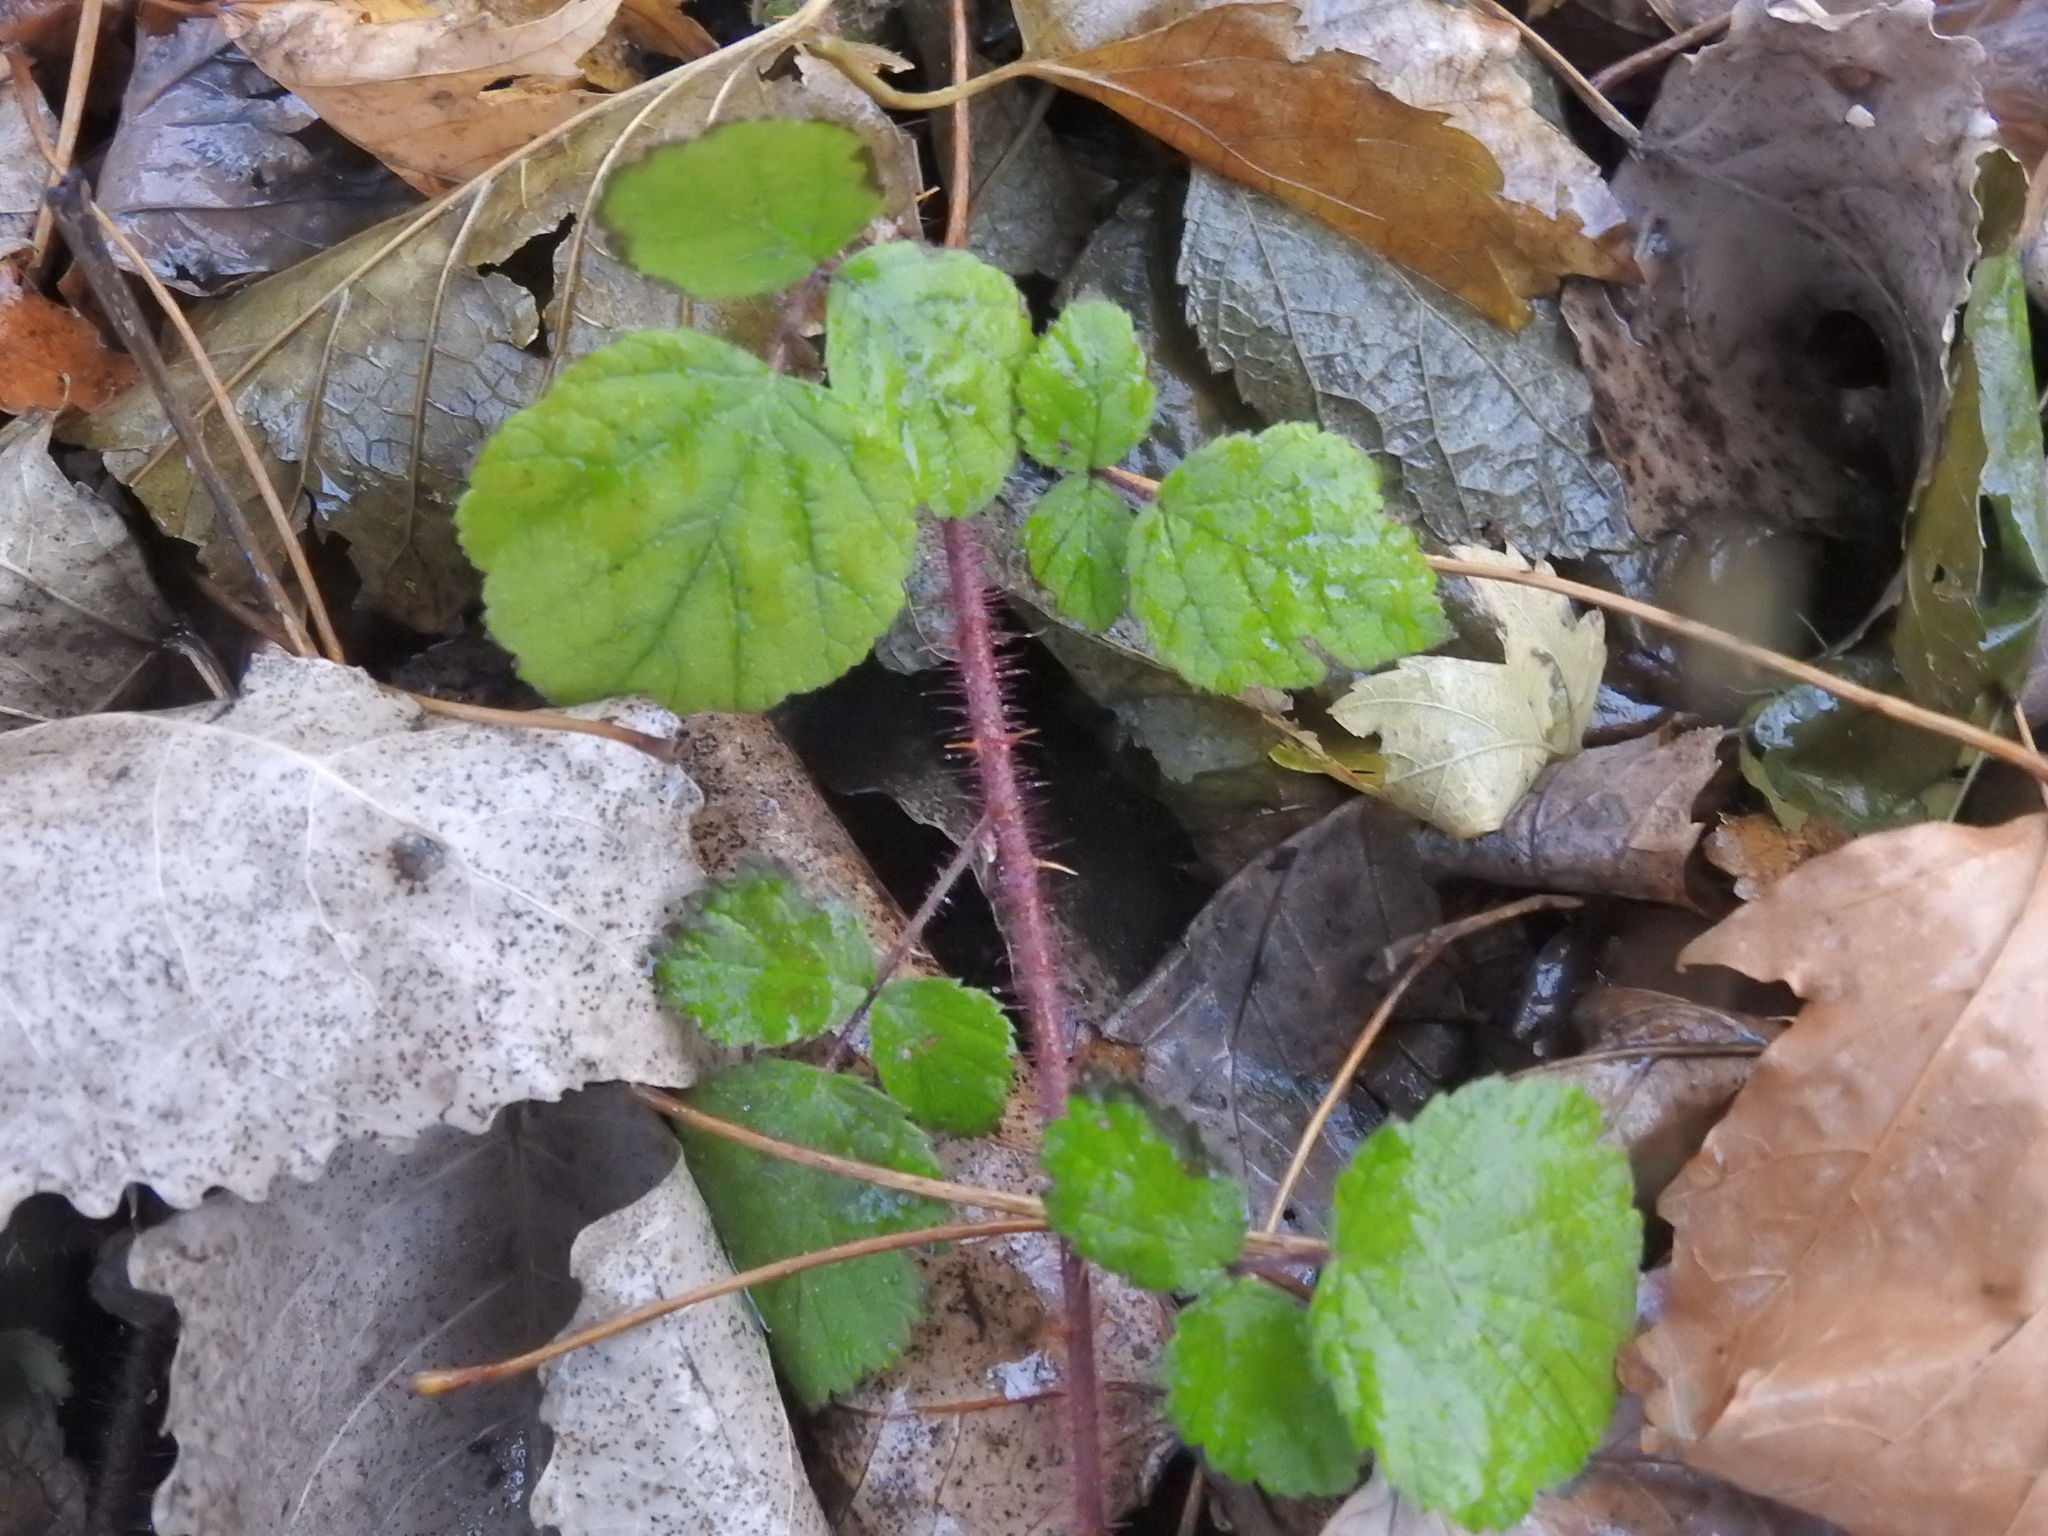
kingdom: Plantae
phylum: Tracheophyta
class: Magnoliopsida
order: Rosales
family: Rosaceae
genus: Rubus
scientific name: Rubus phoenicolasius
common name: Japanese wineberry
